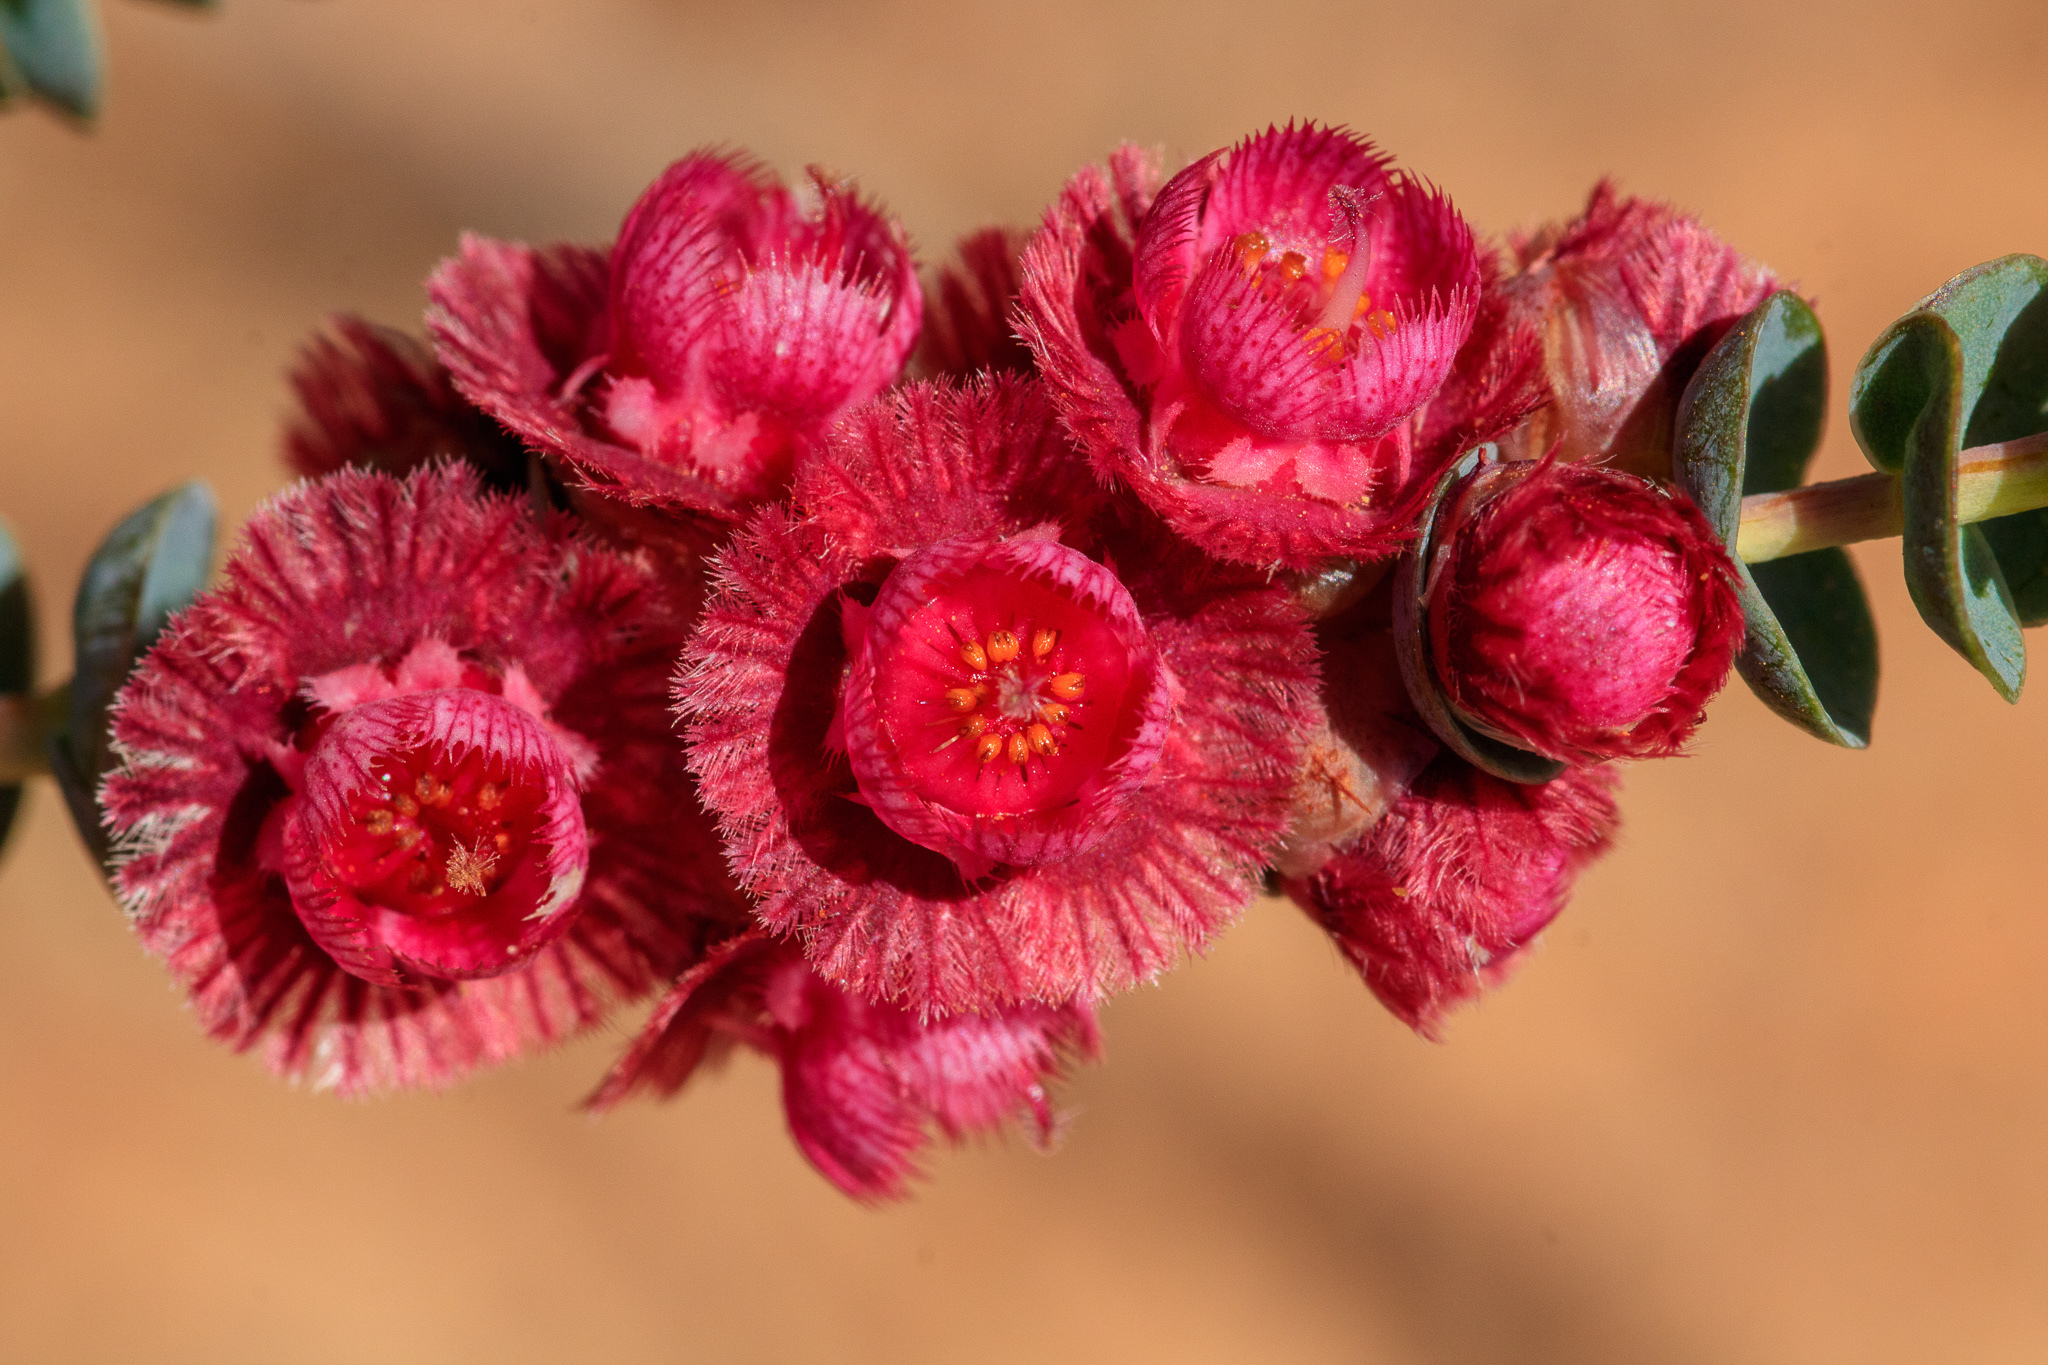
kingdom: Plantae
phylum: Tracheophyta
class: Magnoliopsida
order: Myrtales
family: Myrtaceae
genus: Verticordia
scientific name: Verticordia muelleriana
